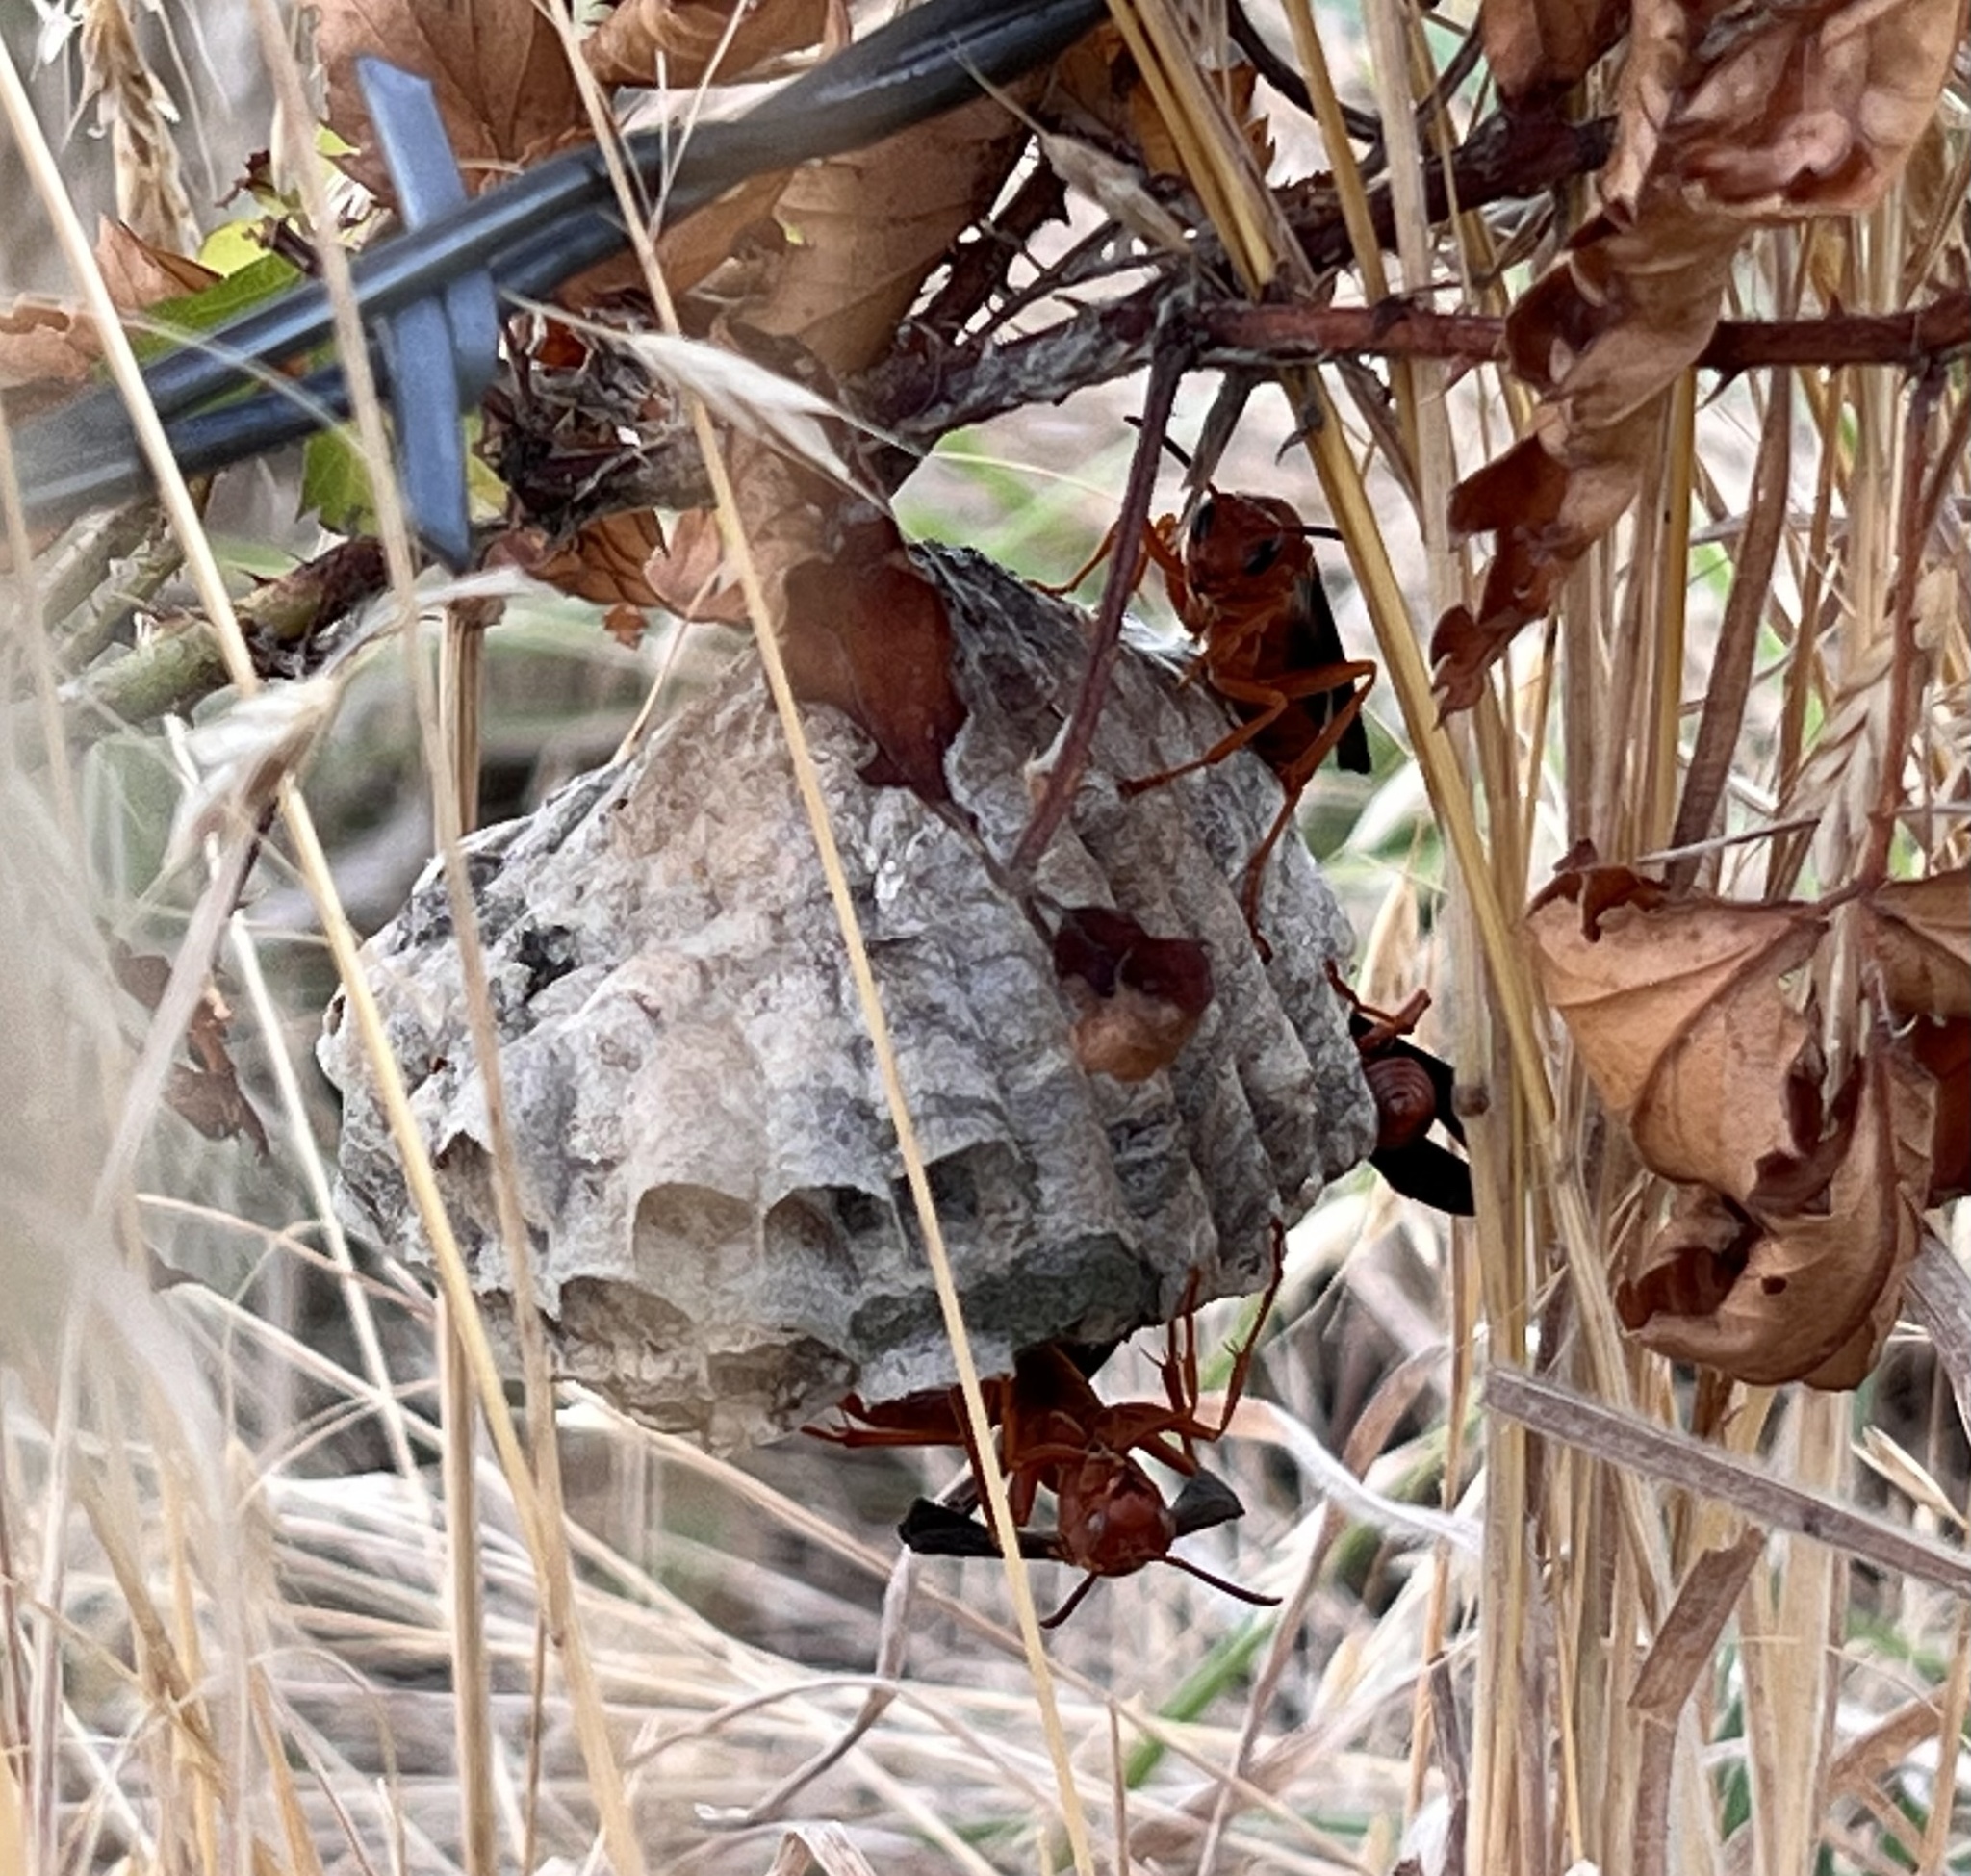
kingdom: Animalia
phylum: Arthropoda
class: Insecta
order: Hymenoptera
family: Eumenidae
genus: Polistes
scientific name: Polistes carolina
